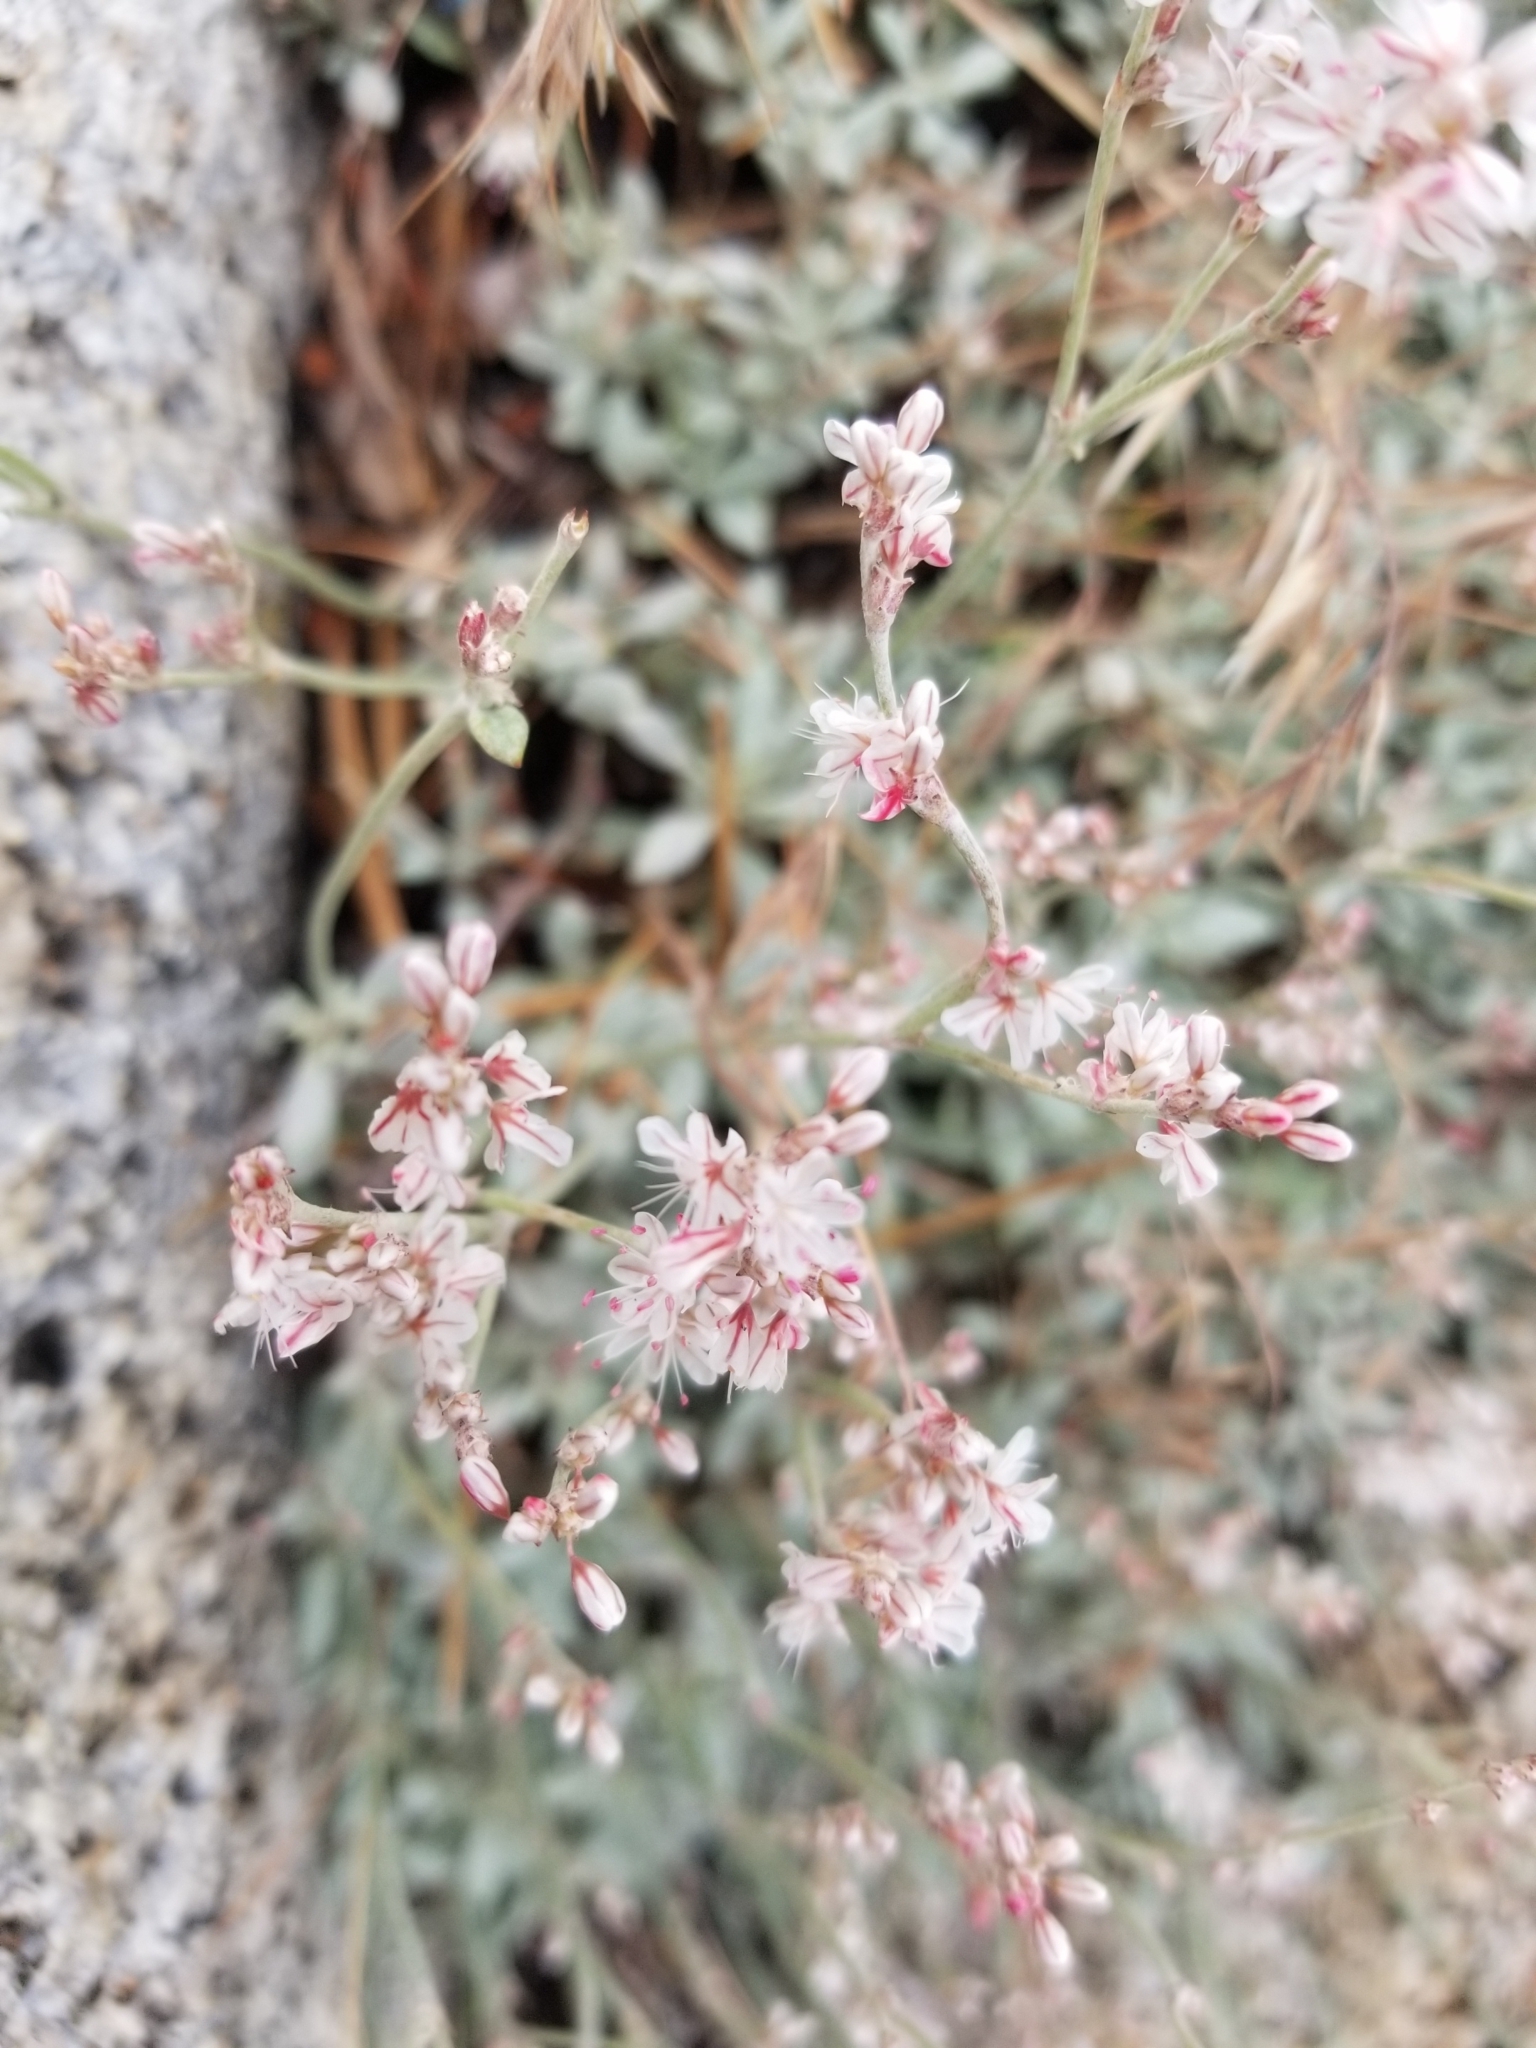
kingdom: Plantae
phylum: Tracheophyta
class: Magnoliopsida
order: Caryophyllales
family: Polygonaceae
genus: Eriogonum
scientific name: Eriogonum wrightii
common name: Bastard-sage
